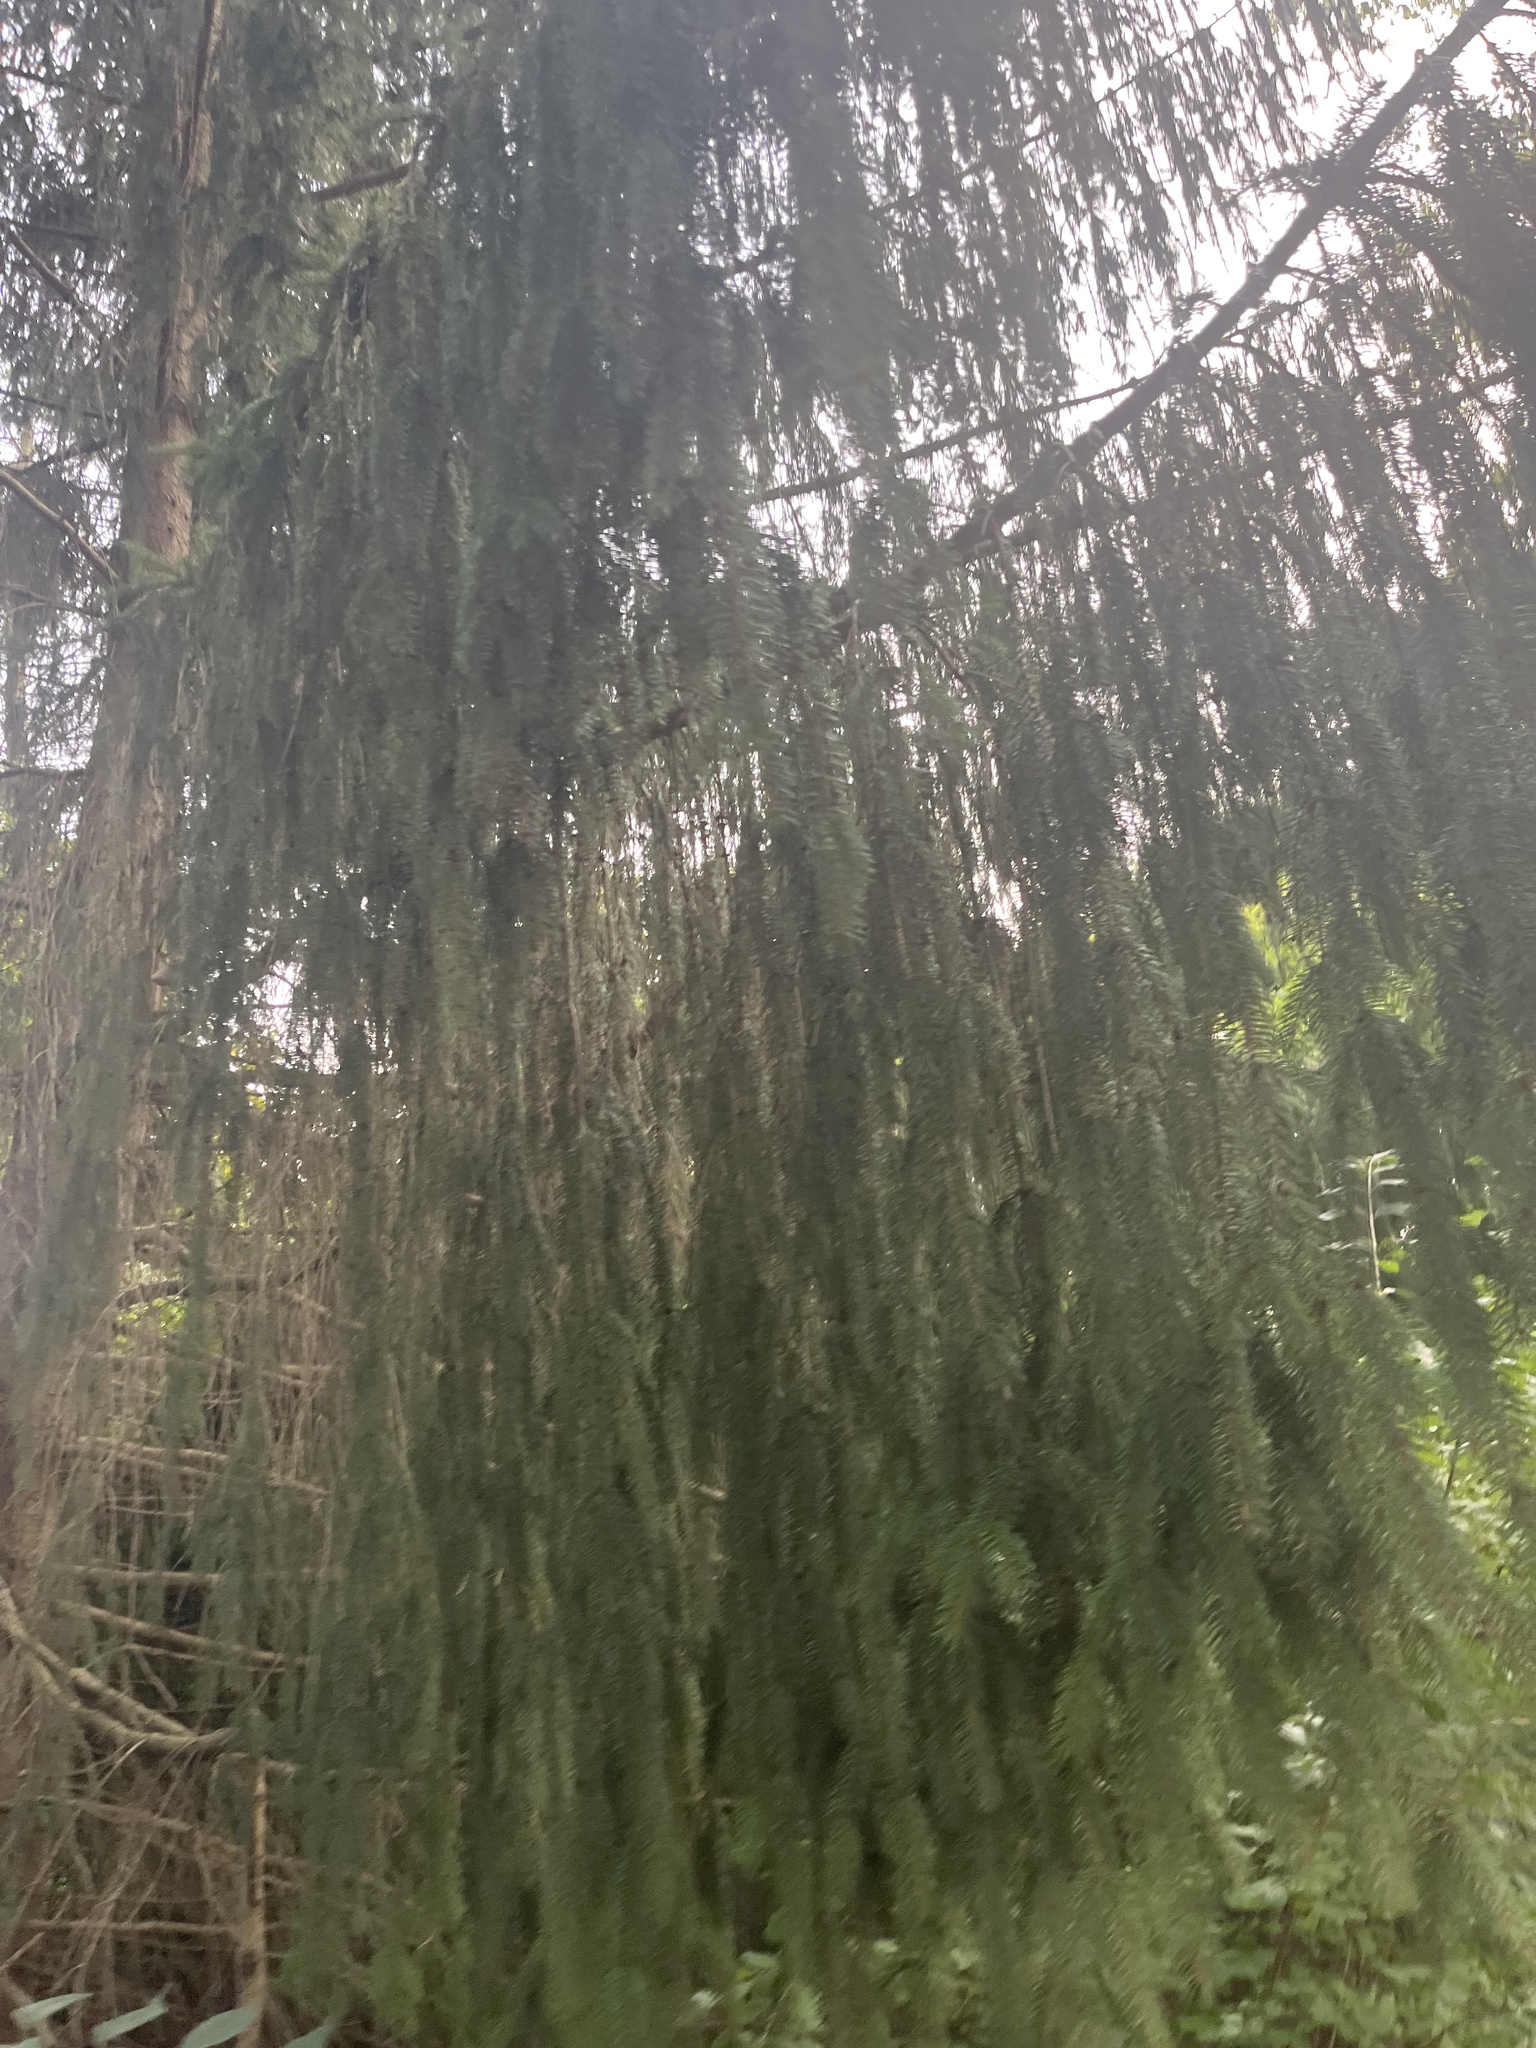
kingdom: Plantae
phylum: Tracheophyta
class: Pinopsida
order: Pinales
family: Pinaceae
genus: Picea
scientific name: Picea abies
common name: Norway spruce
